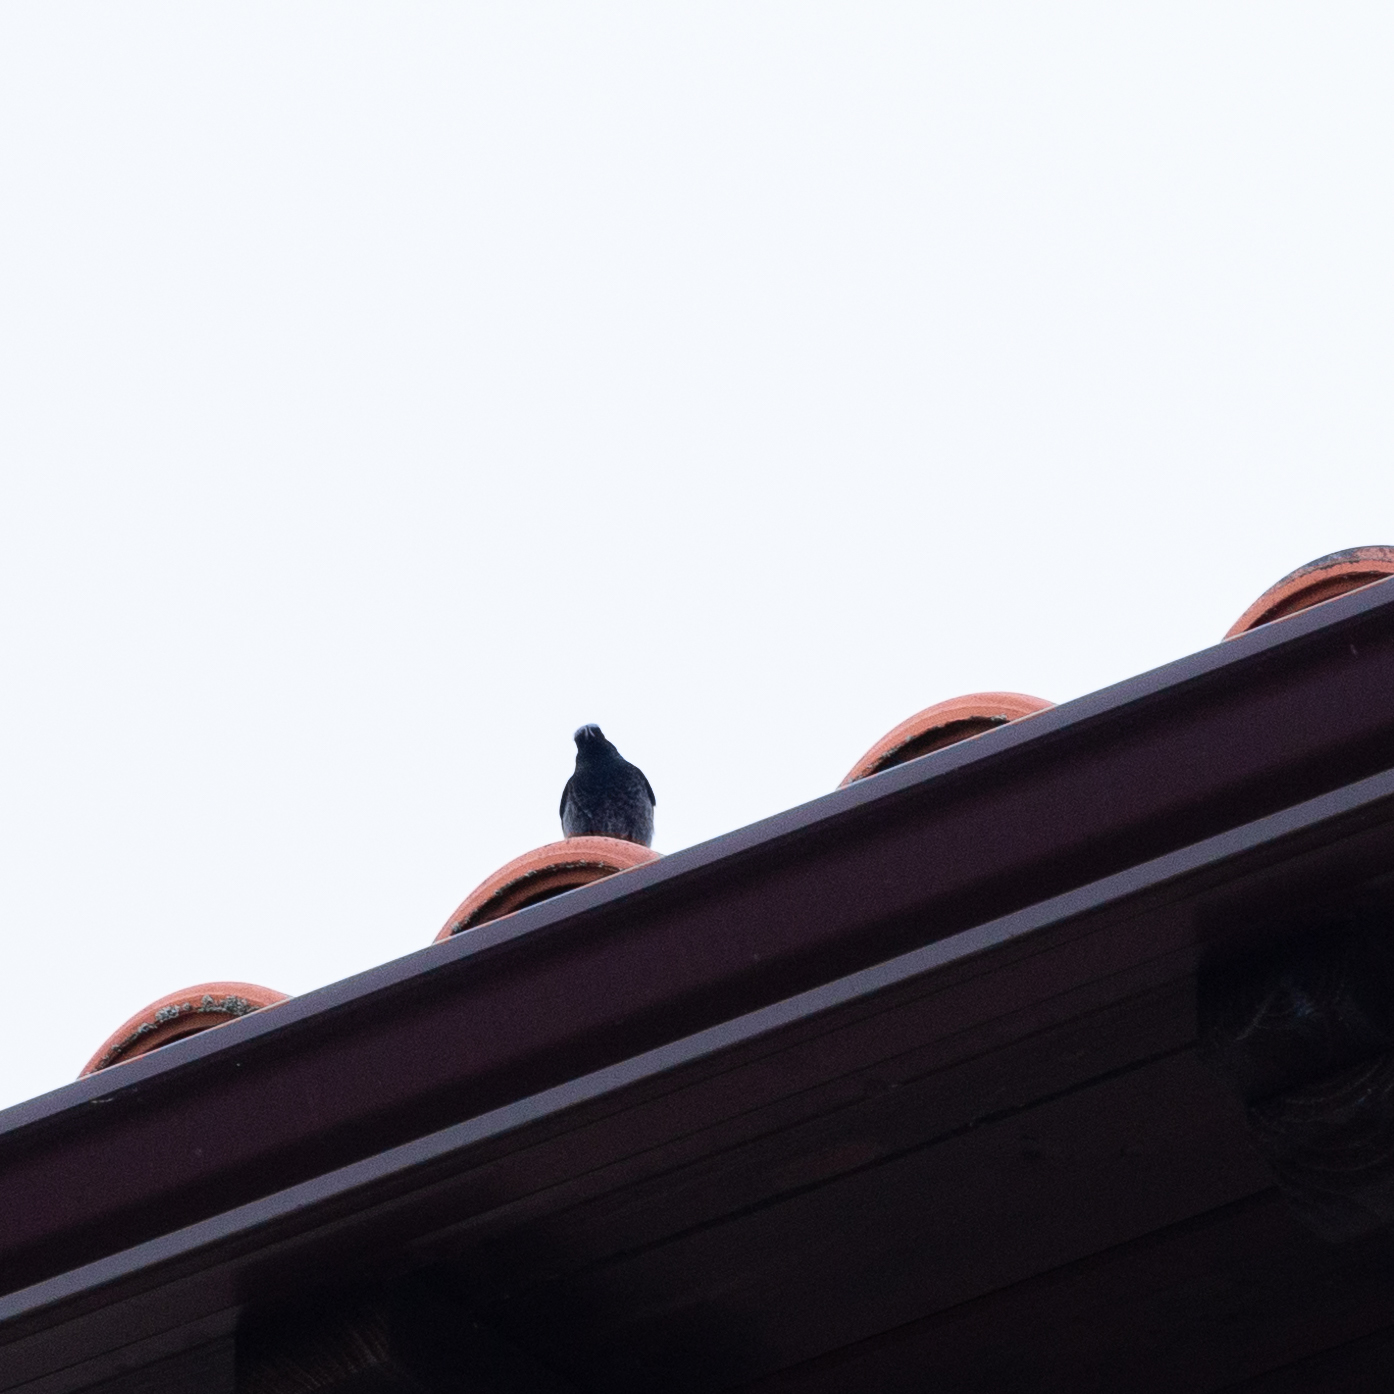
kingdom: Animalia
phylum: Chordata
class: Aves
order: Passeriformes
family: Muscicapidae
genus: Phoenicurus
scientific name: Phoenicurus ochruros
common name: Black redstart
